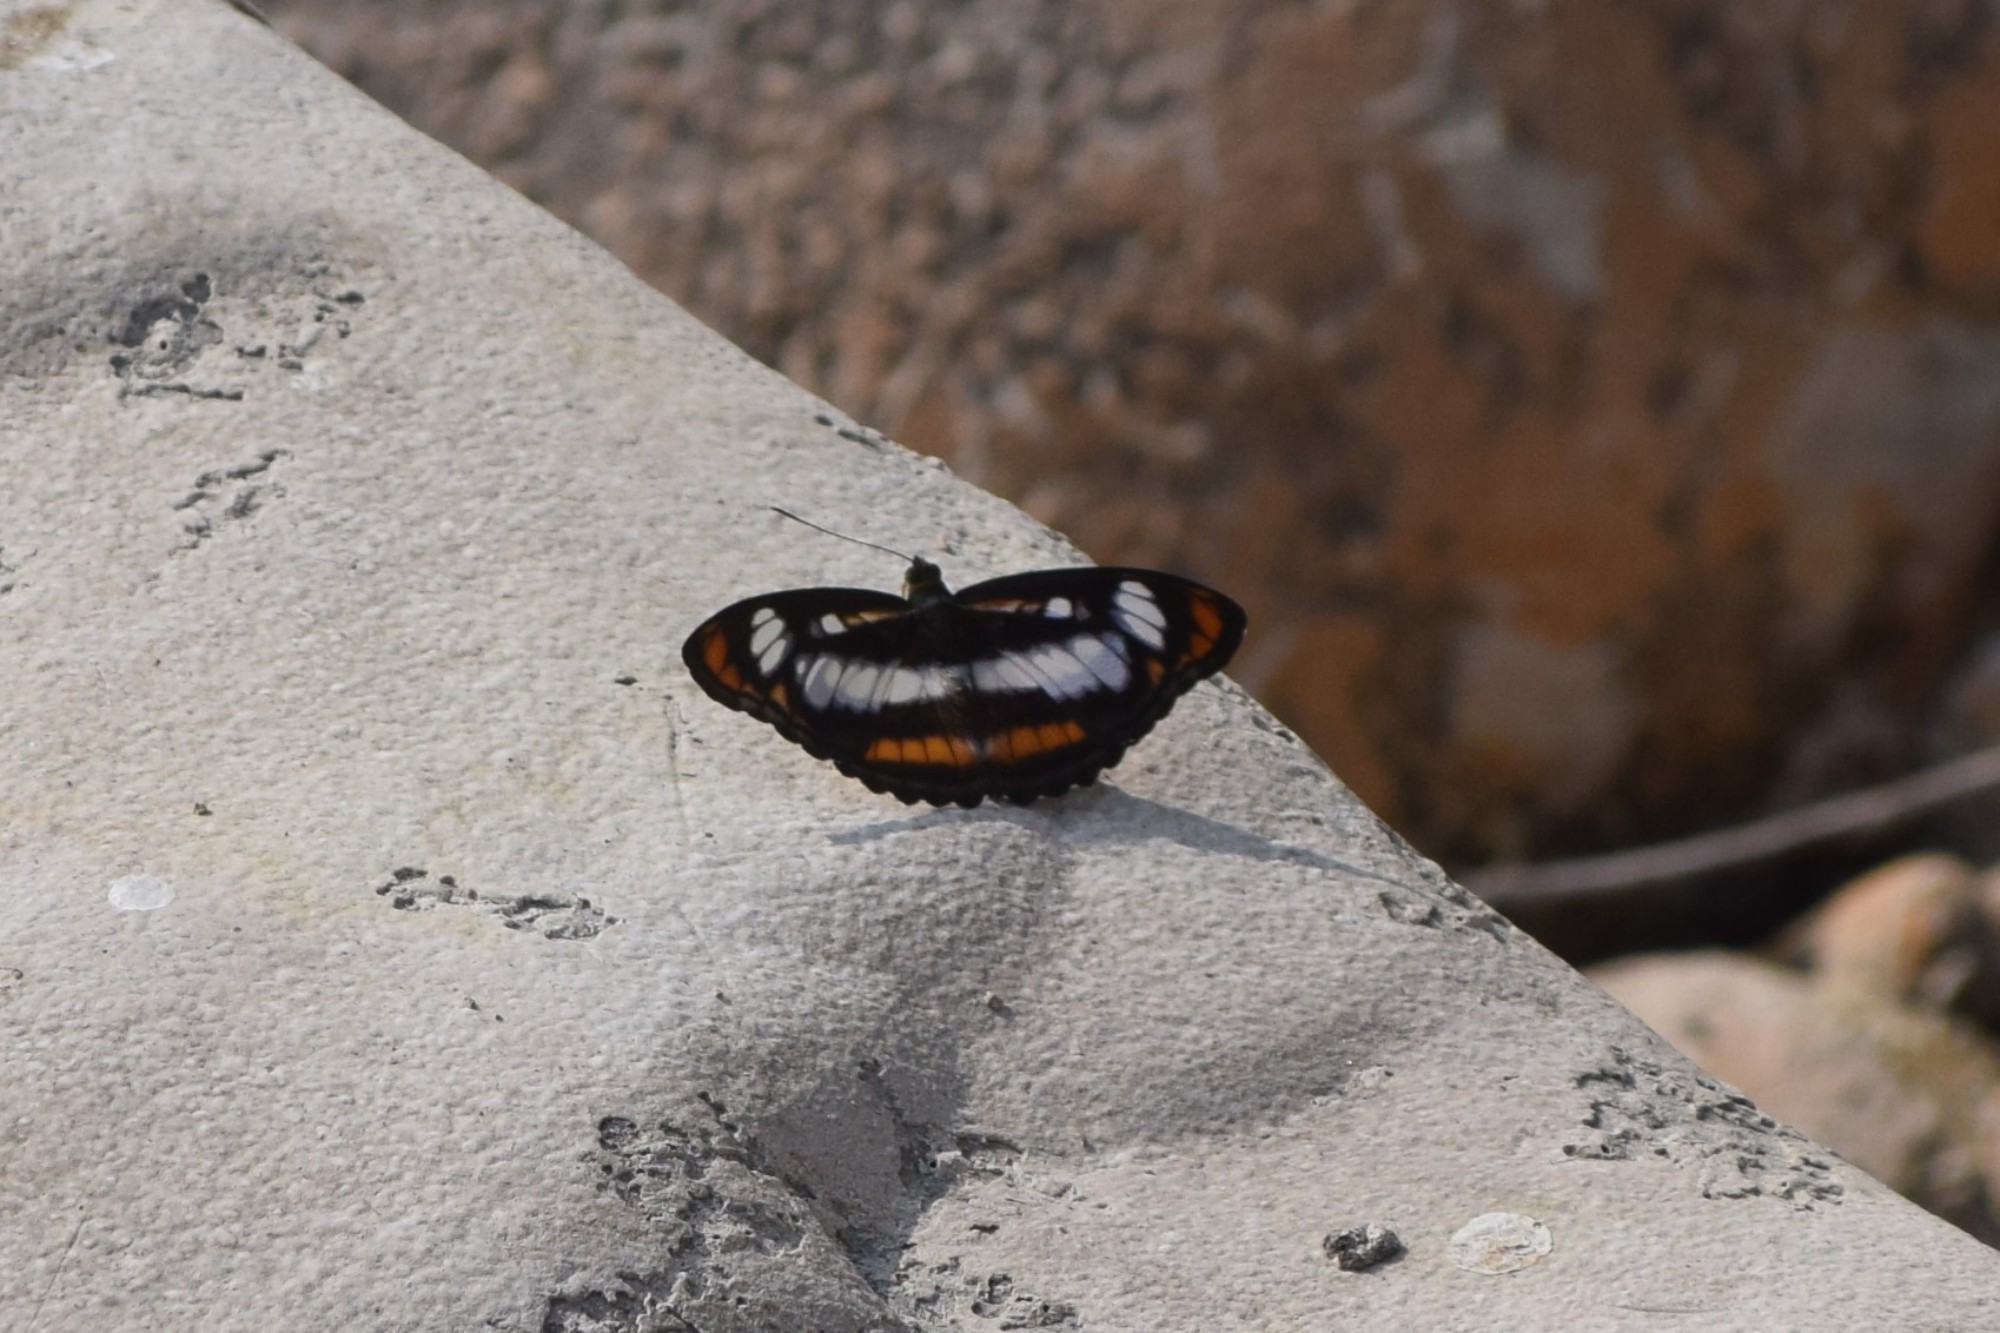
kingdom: Animalia
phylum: Arthropoda
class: Insecta
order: Lepidoptera
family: Nymphalidae
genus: Parathyma
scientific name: Parathyma nefte
